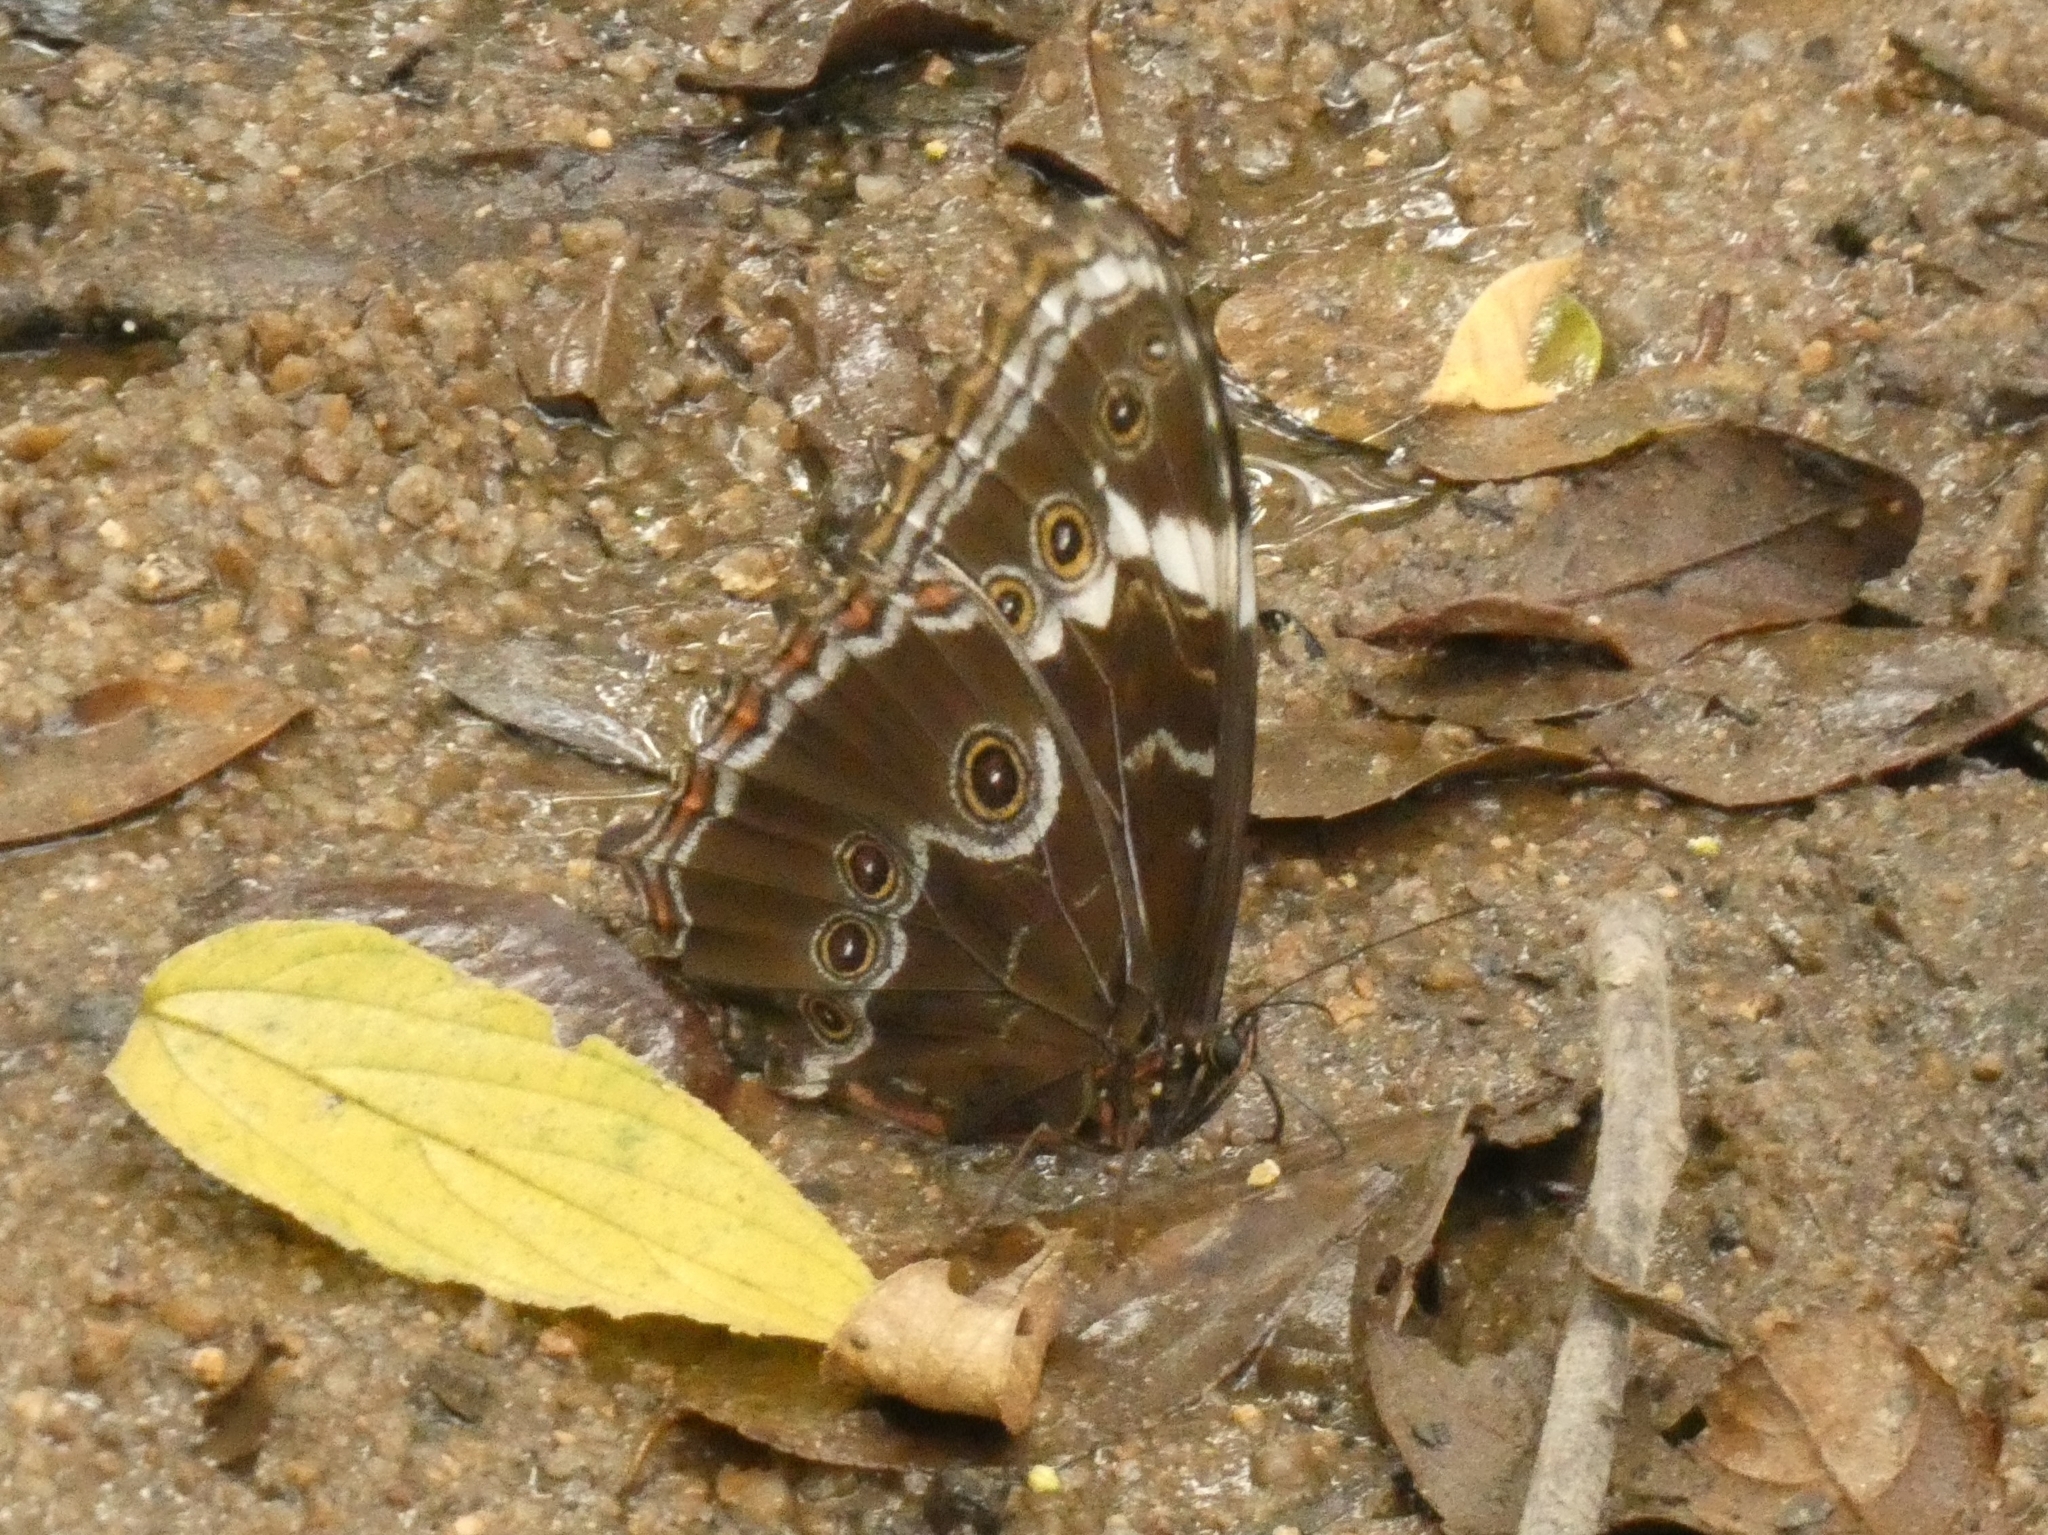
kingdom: Animalia
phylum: Arthropoda
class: Insecta
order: Lepidoptera
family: Nymphalidae
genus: Morpho
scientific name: Morpho helenor
